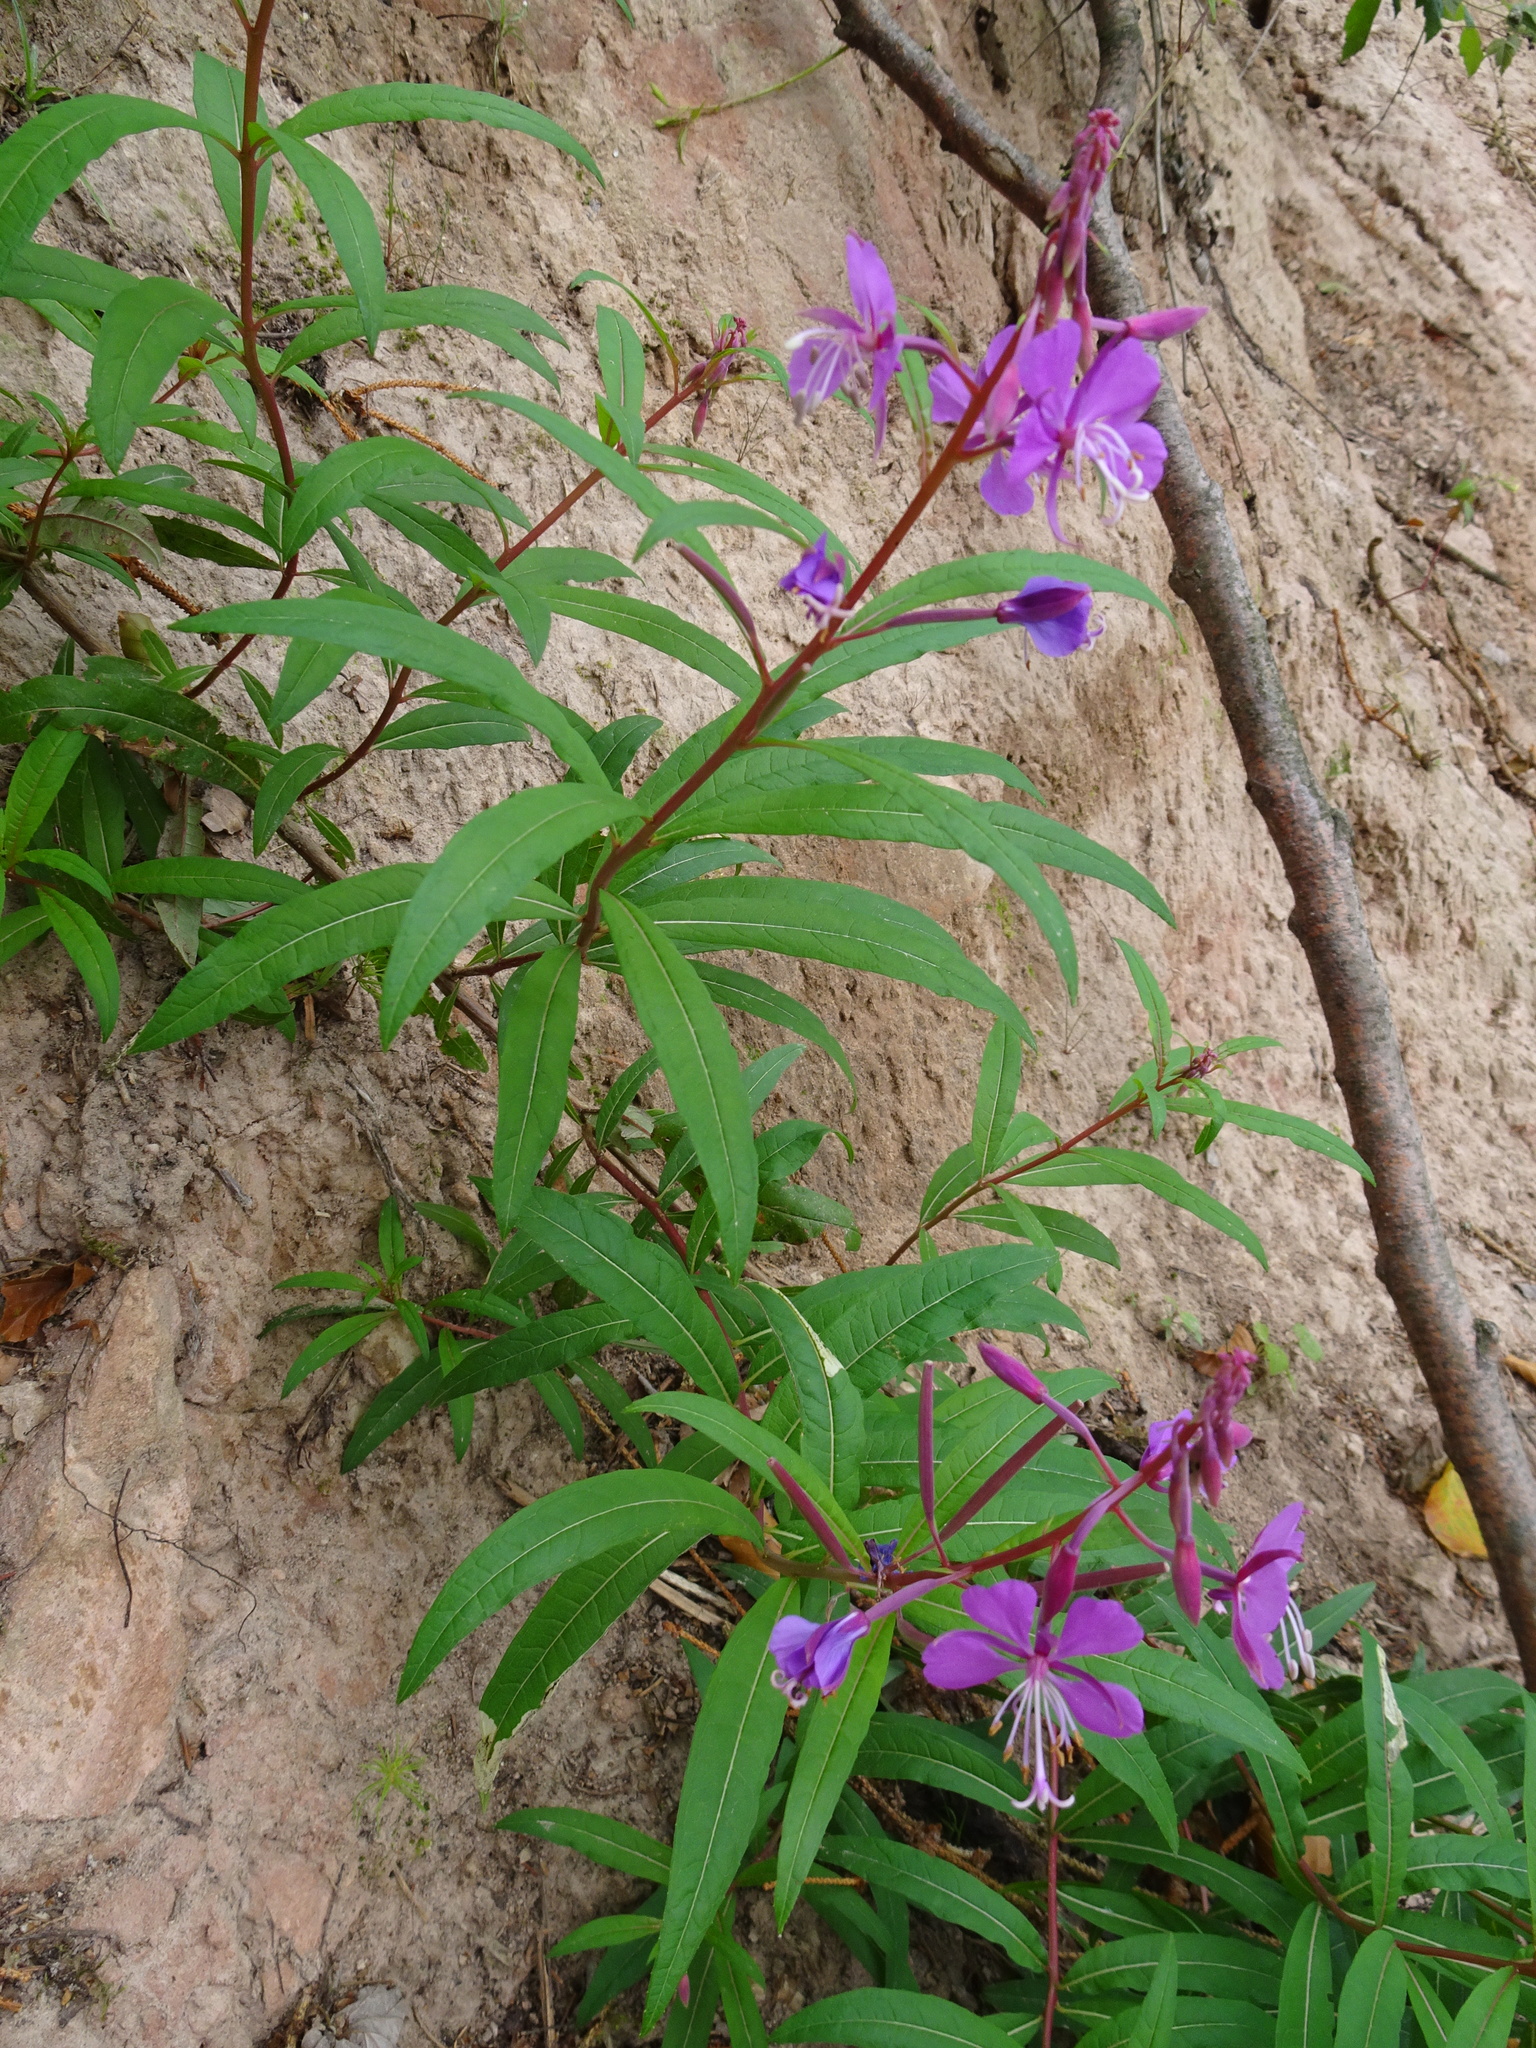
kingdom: Plantae
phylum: Tracheophyta
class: Magnoliopsida
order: Myrtales
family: Onagraceae
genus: Chamaenerion
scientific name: Chamaenerion angustifolium
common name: Fireweed
